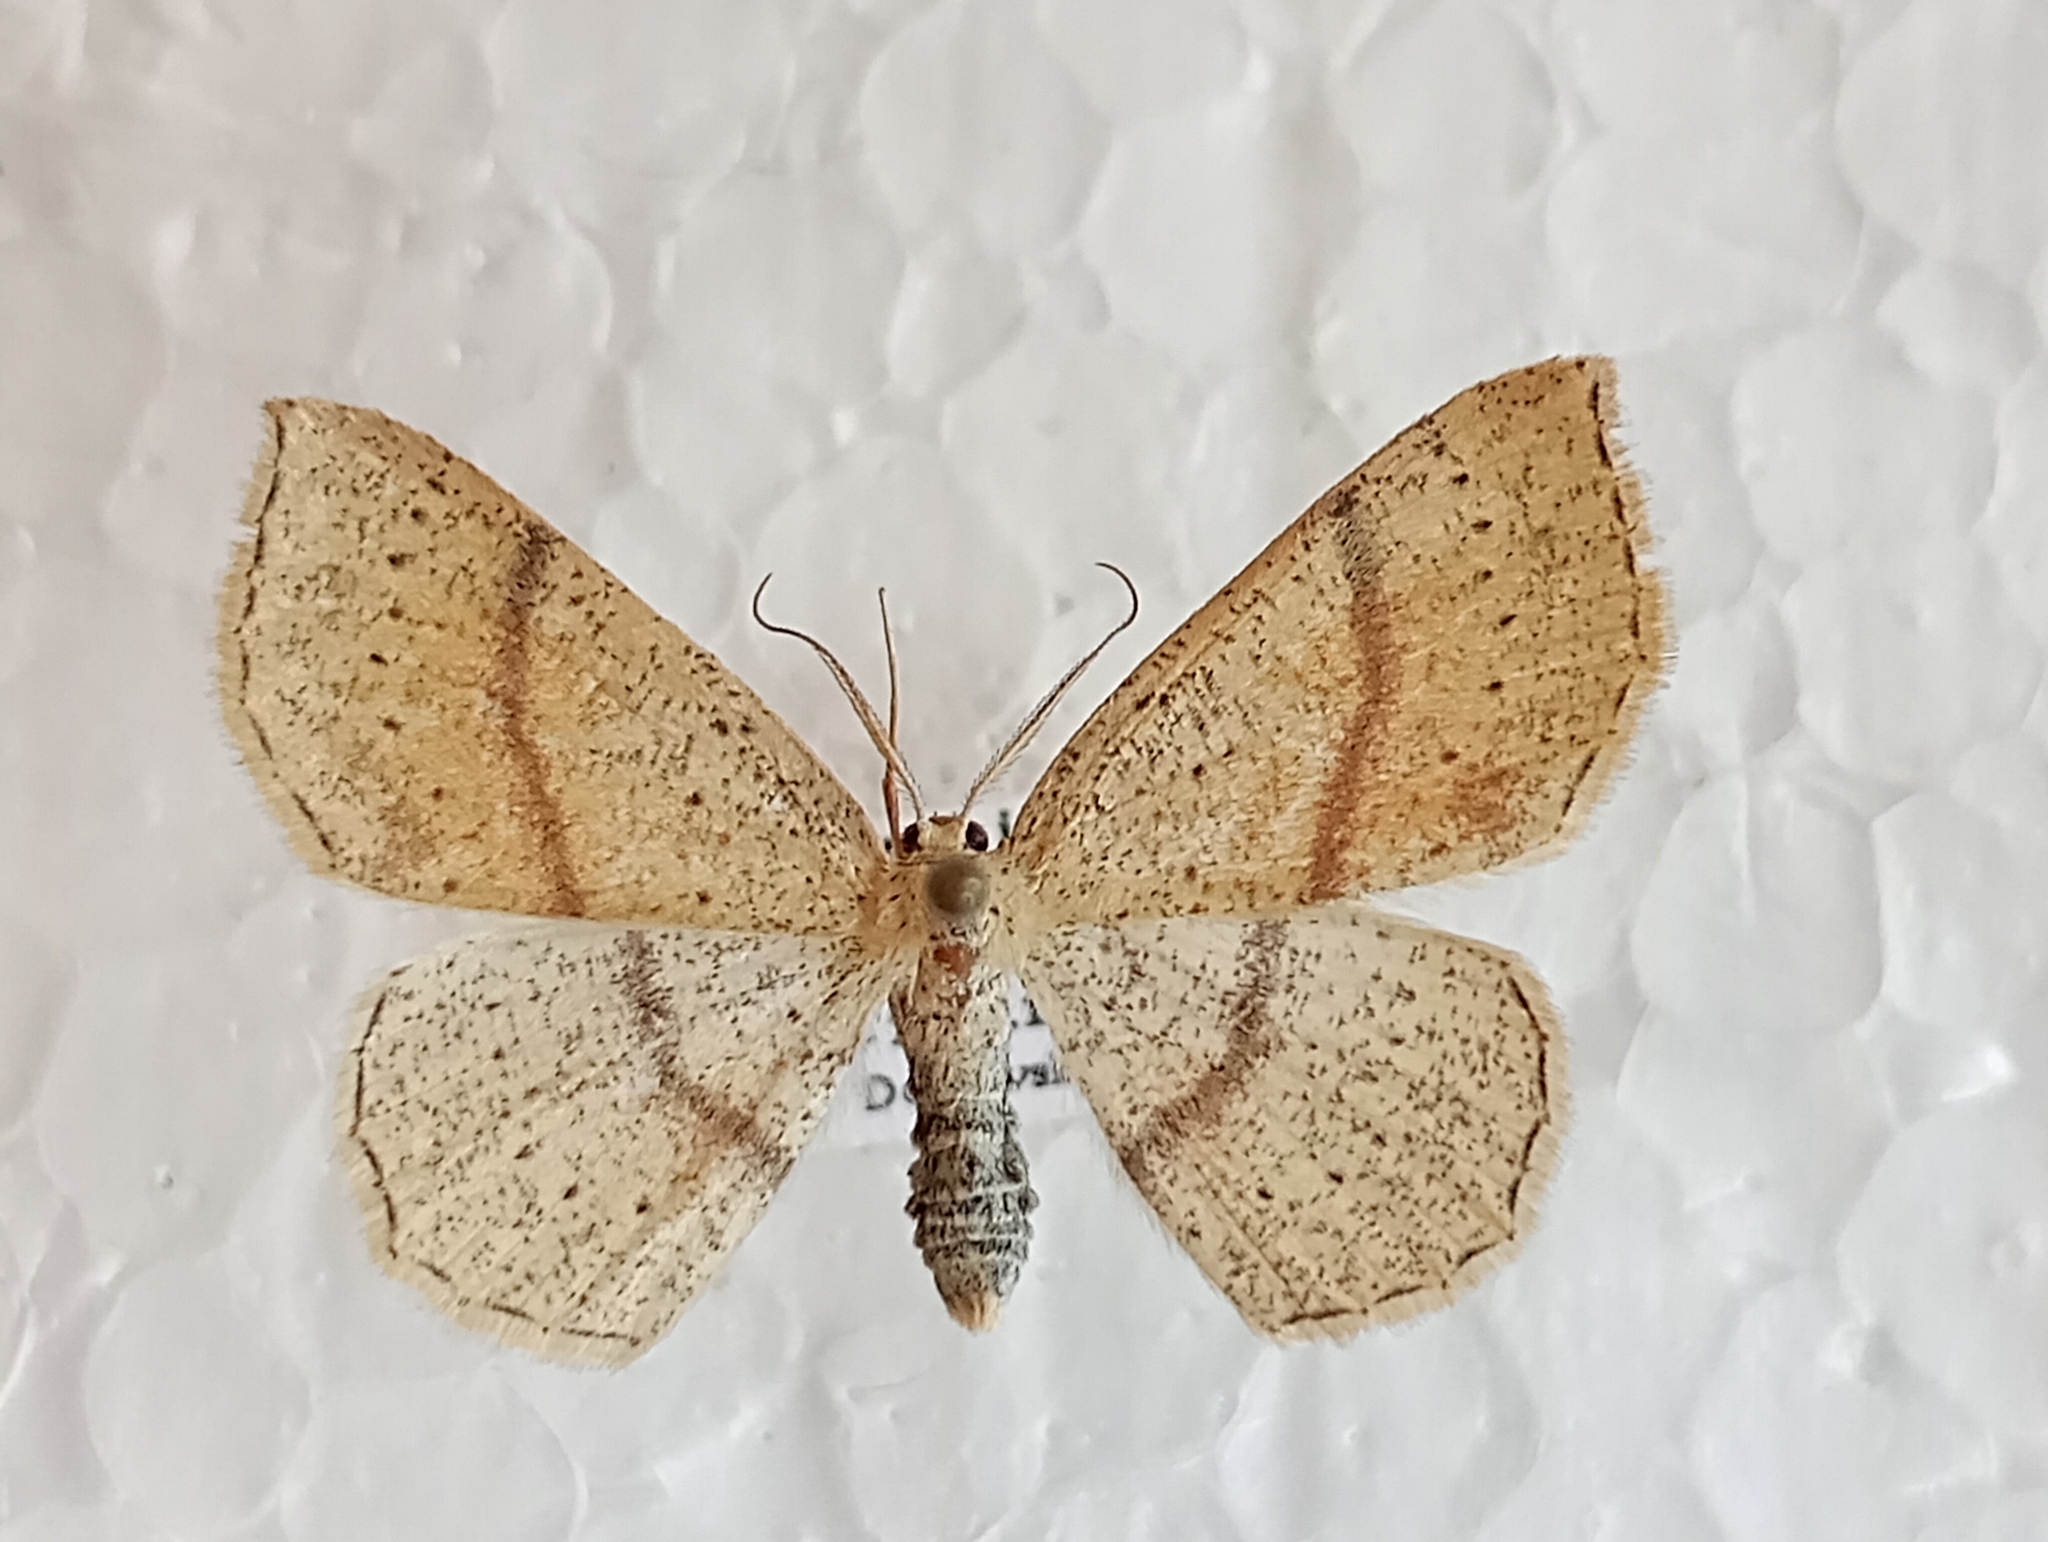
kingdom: Animalia
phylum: Arthropoda
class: Insecta
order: Lepidoptera
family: Geometridae
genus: Cyclophora
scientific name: Cyclophora punctaria
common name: Maiden's blush
